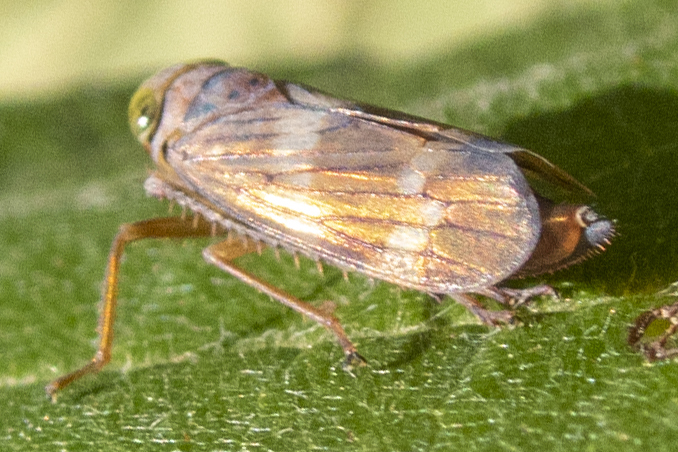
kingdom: Animalia
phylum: Arthropoda
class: Insecta
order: Hemiptera
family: Cicadellidae
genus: Jikradia
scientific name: Jikradia olitoria
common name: Coppery leafhopper
